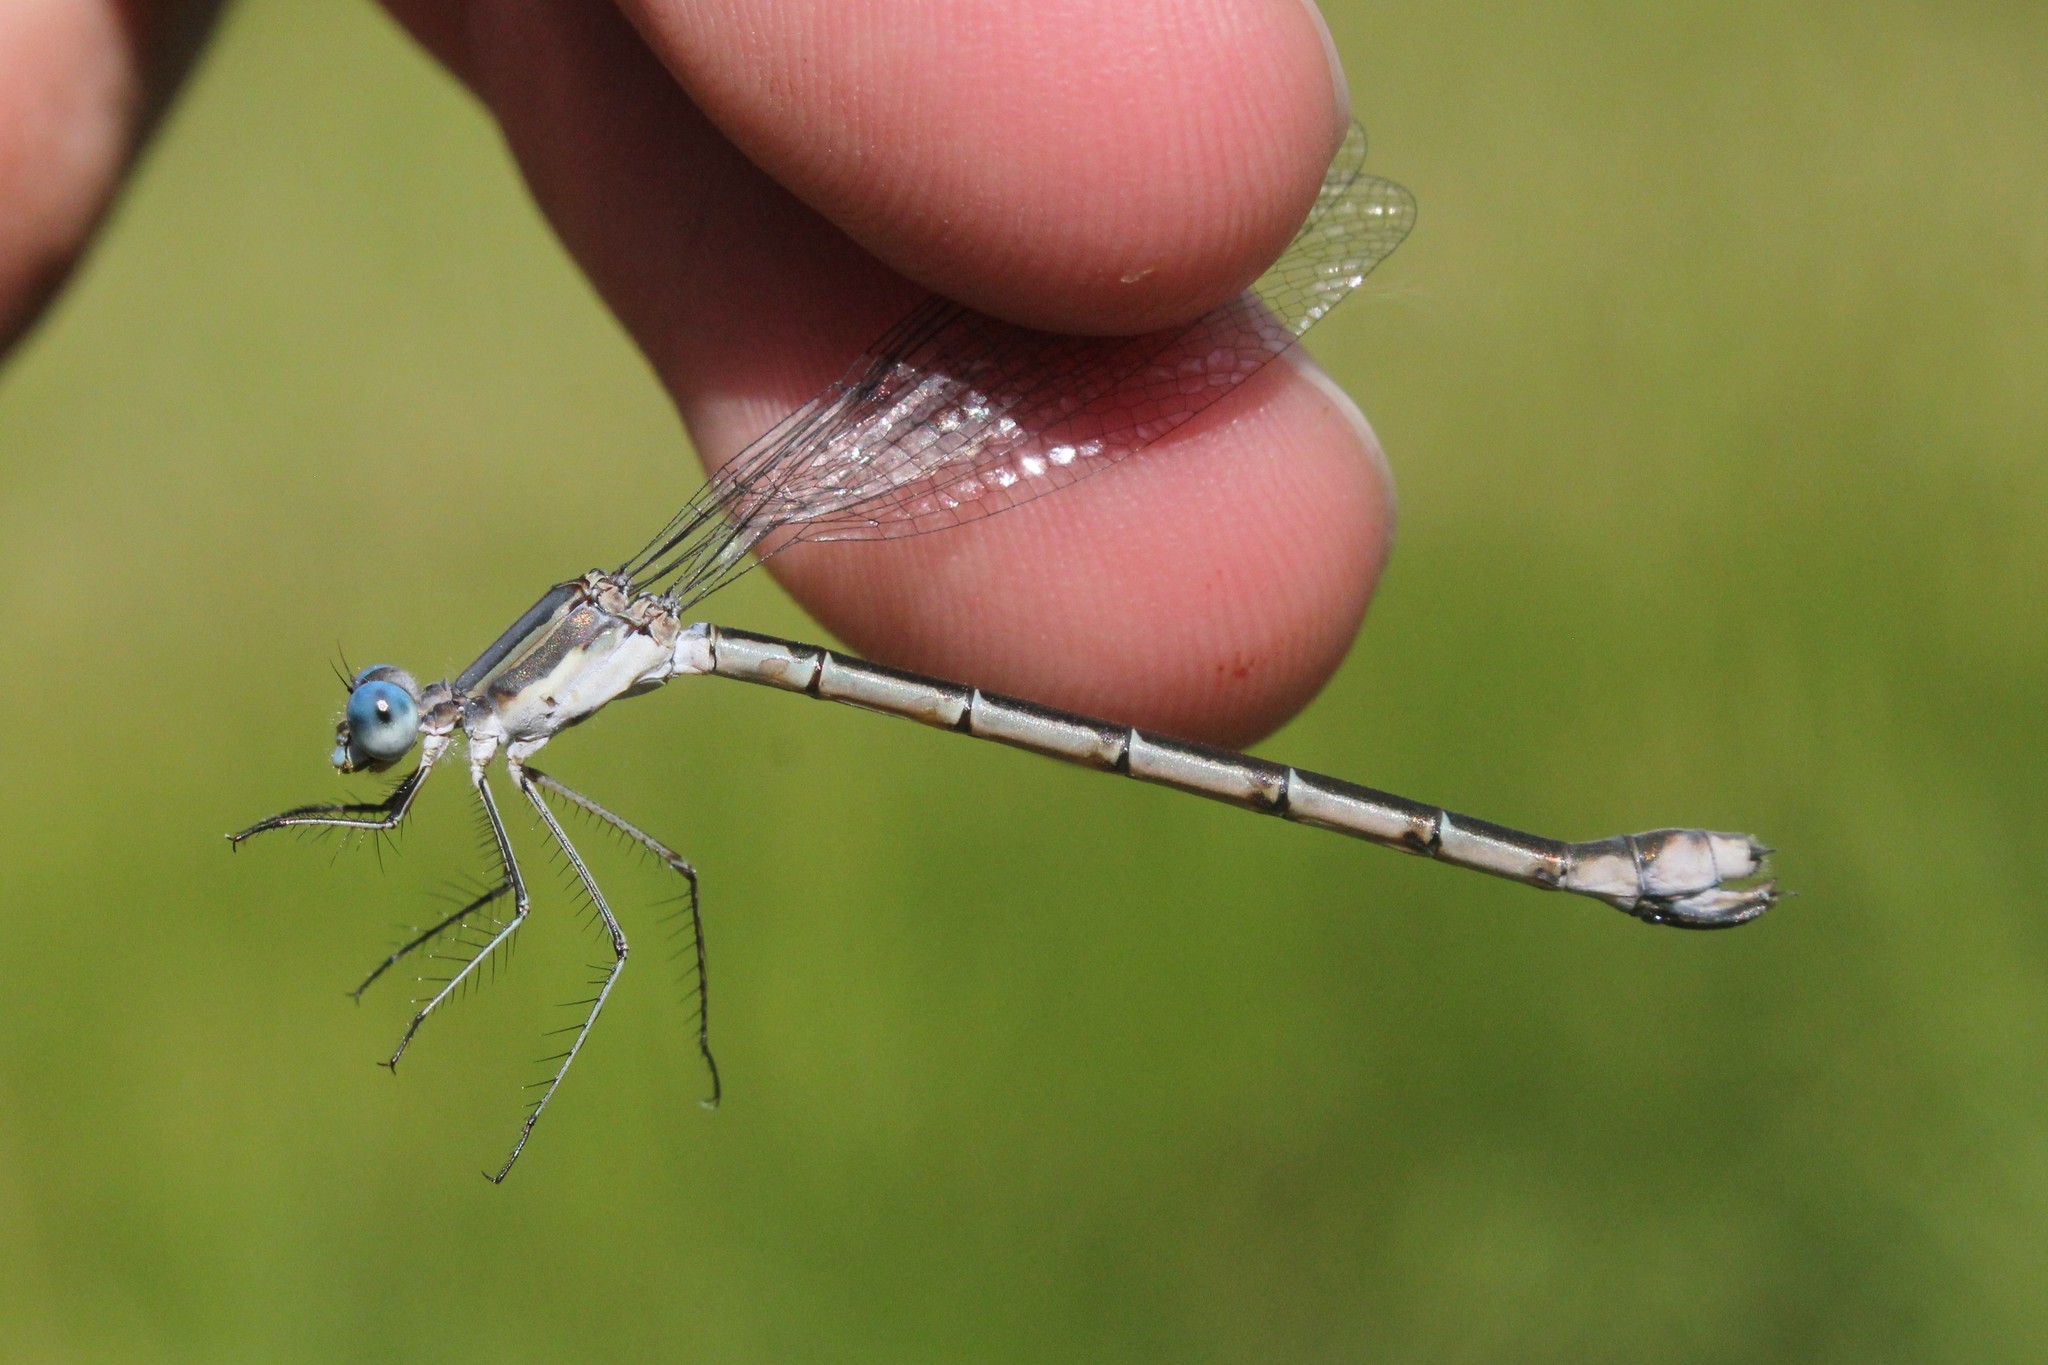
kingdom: Animalia
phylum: Arthropoda
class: Insecta
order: Odonata
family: Lestidae
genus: Lestes
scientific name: Lestes forcipatus
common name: Sweetflag spreadwing
